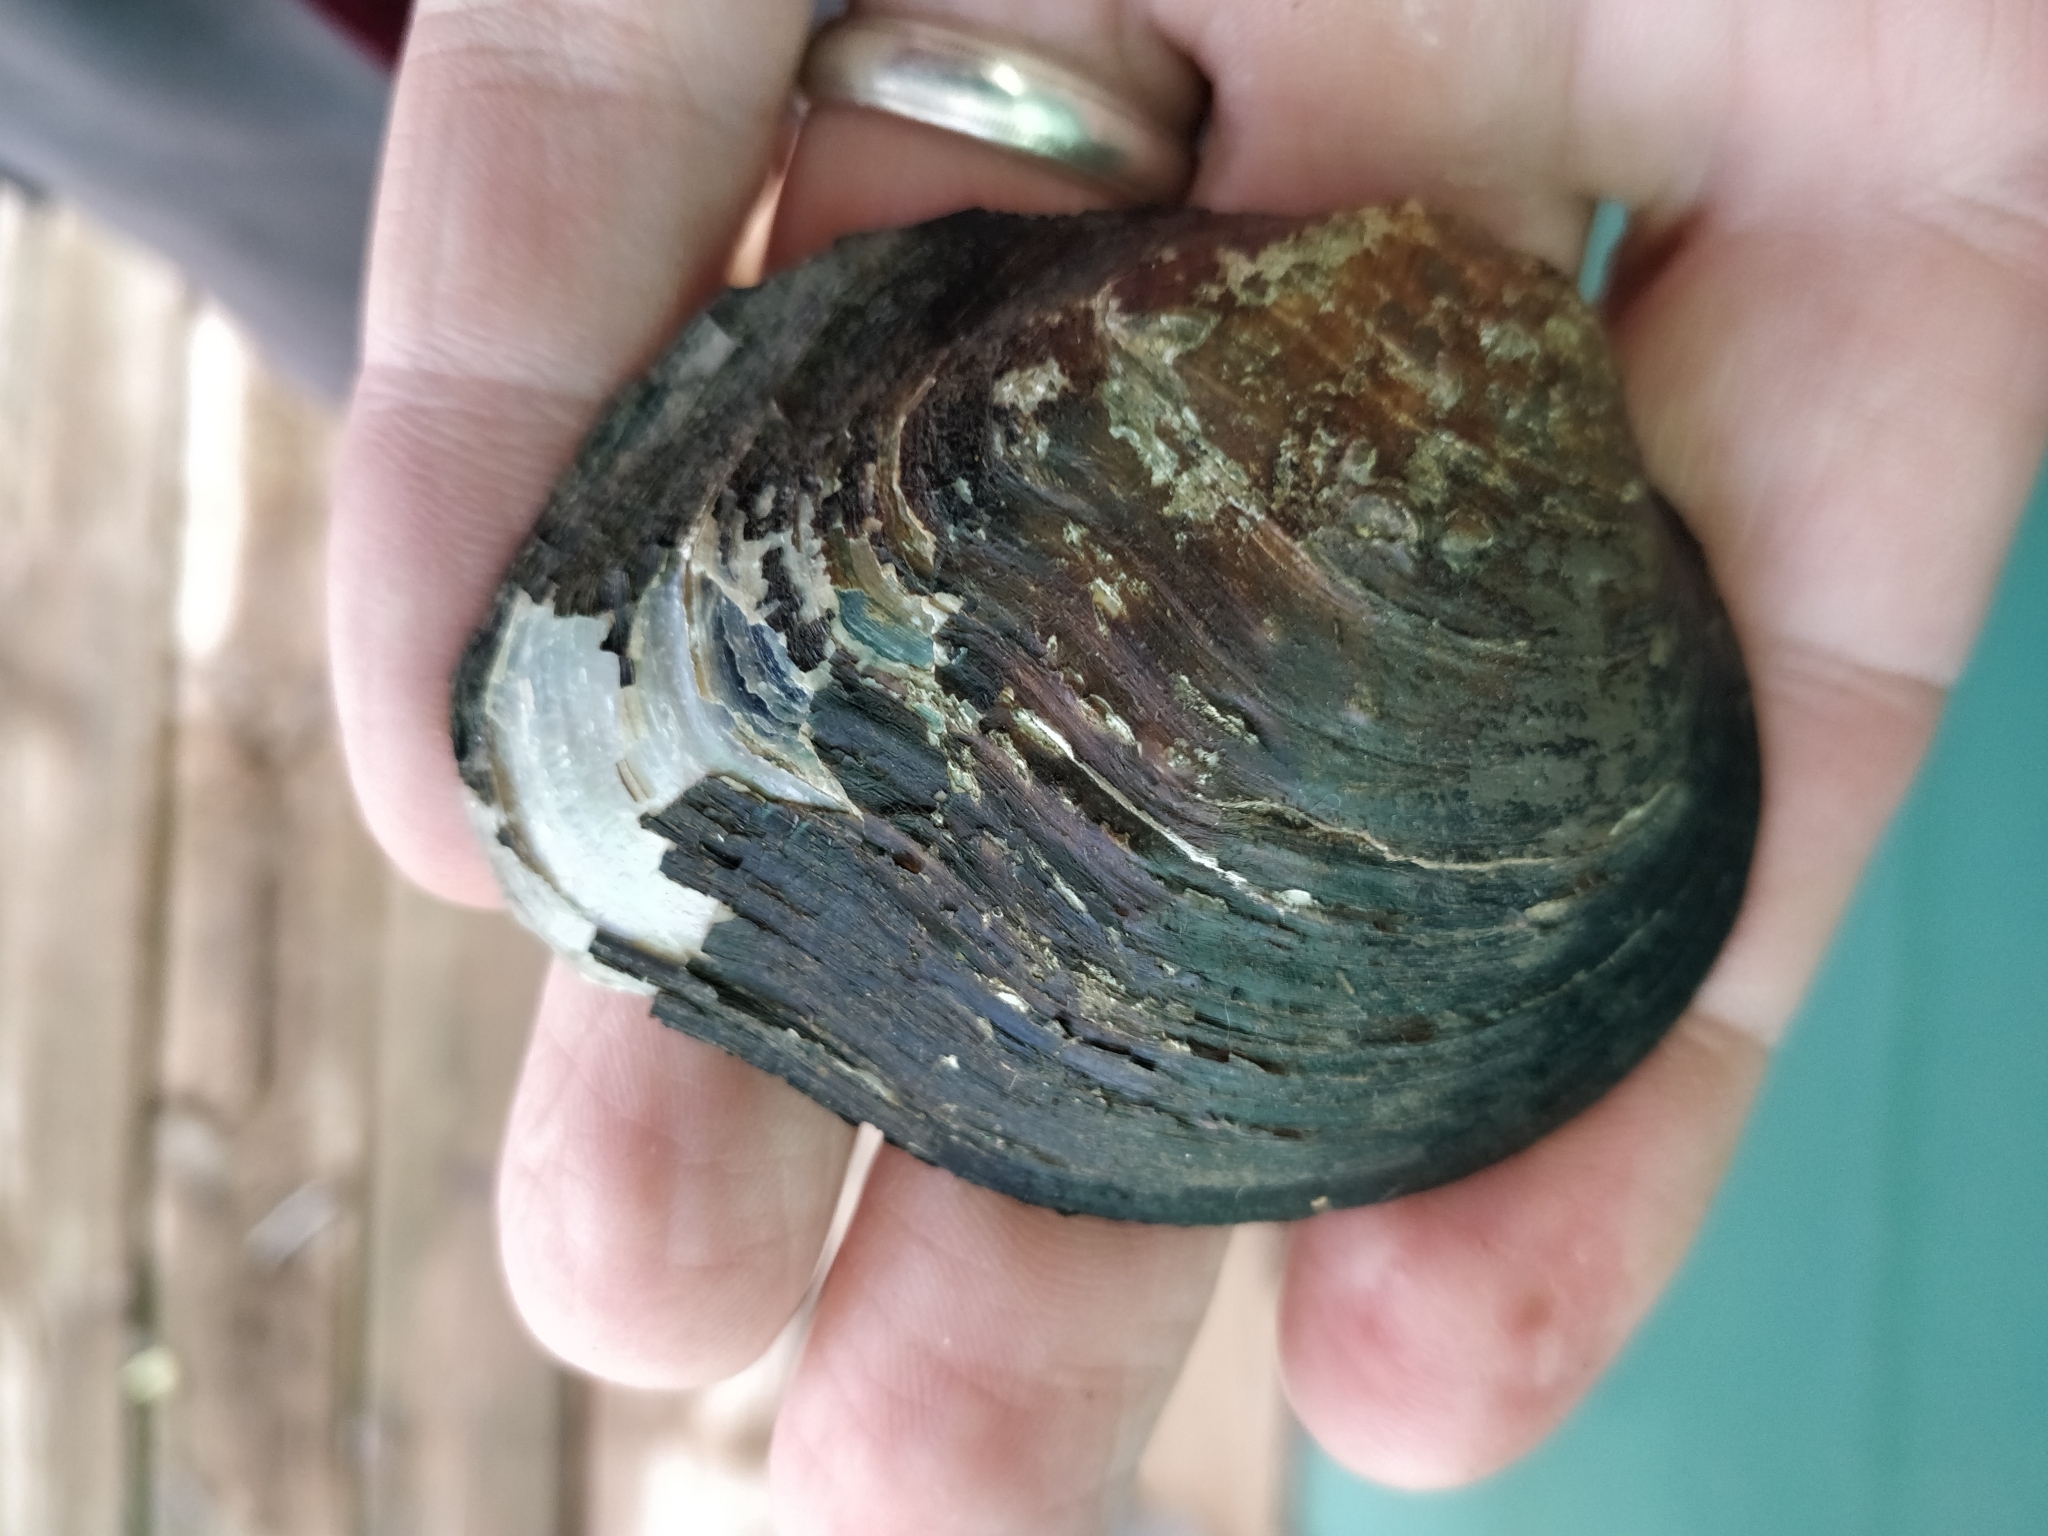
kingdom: Animalia
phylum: Mollusca
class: Bivalvia
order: Unionida
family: Unionidae
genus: Quadrula
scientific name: Quadrula quadrula
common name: Mapleleaf
